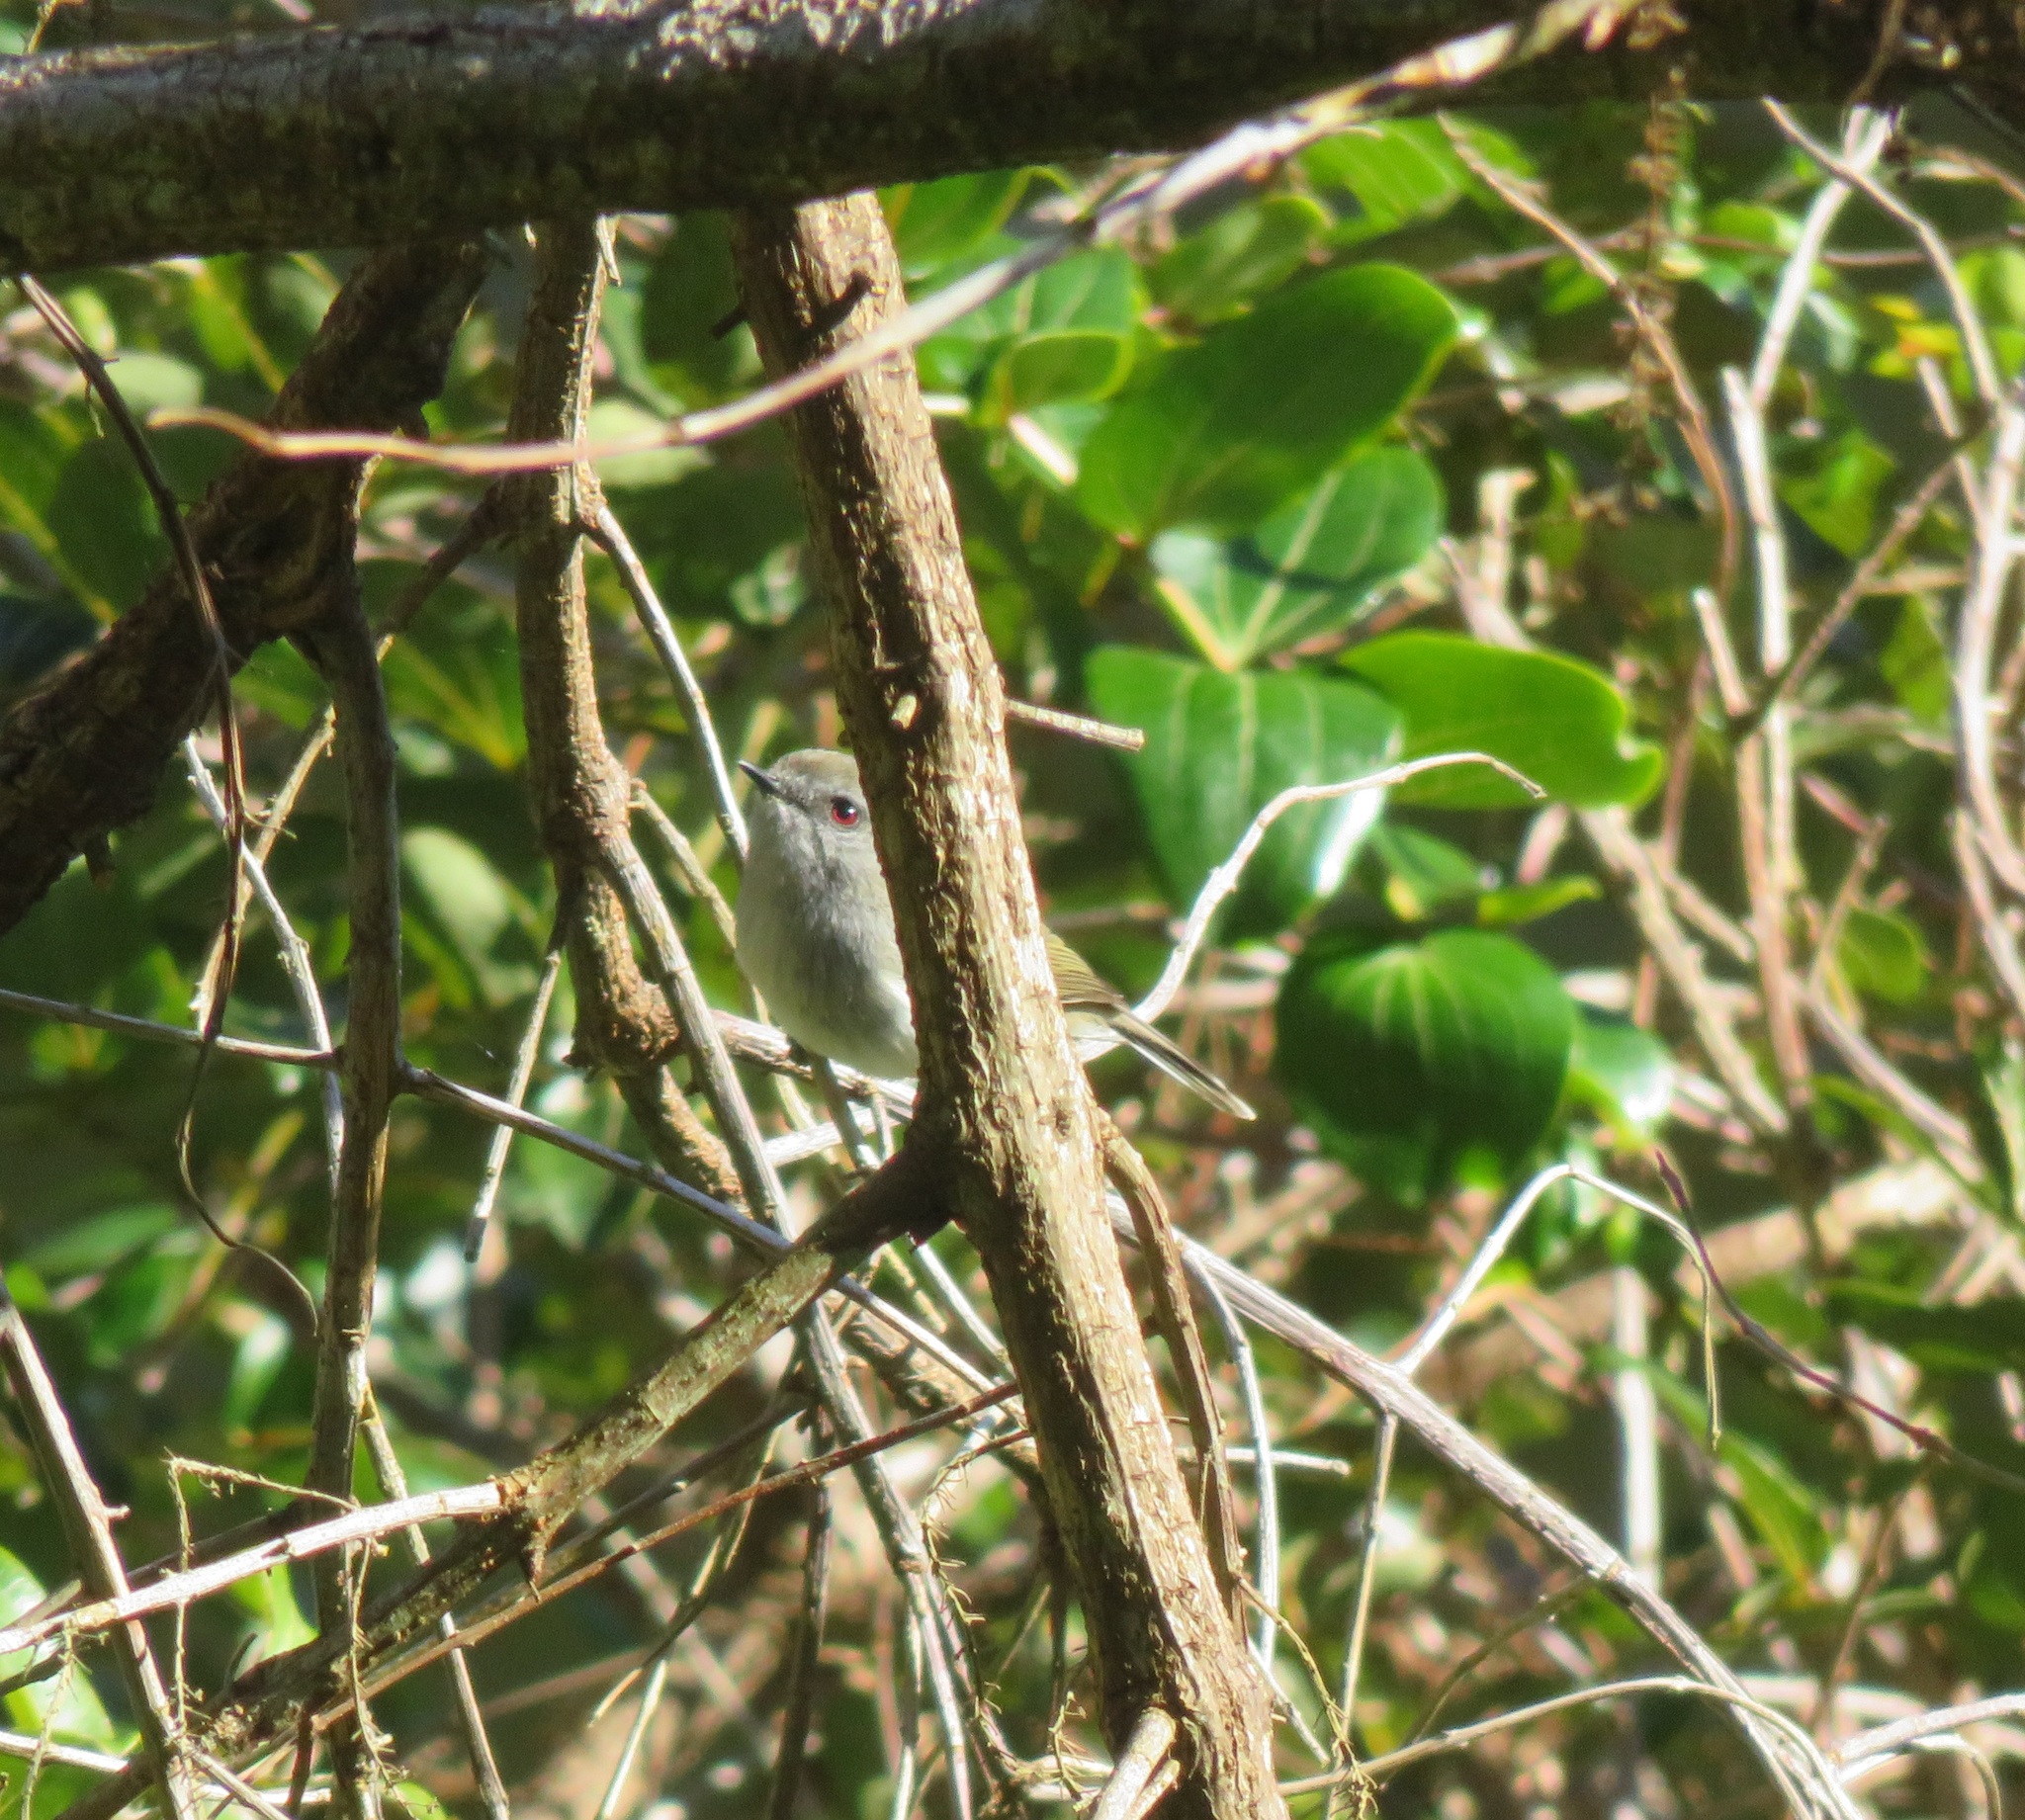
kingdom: Animalia
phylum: Chordata
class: Aves
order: Passeriformes
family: Acanthizidae
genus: Gerygone
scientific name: Gerygone igata
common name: Grey gerygone
